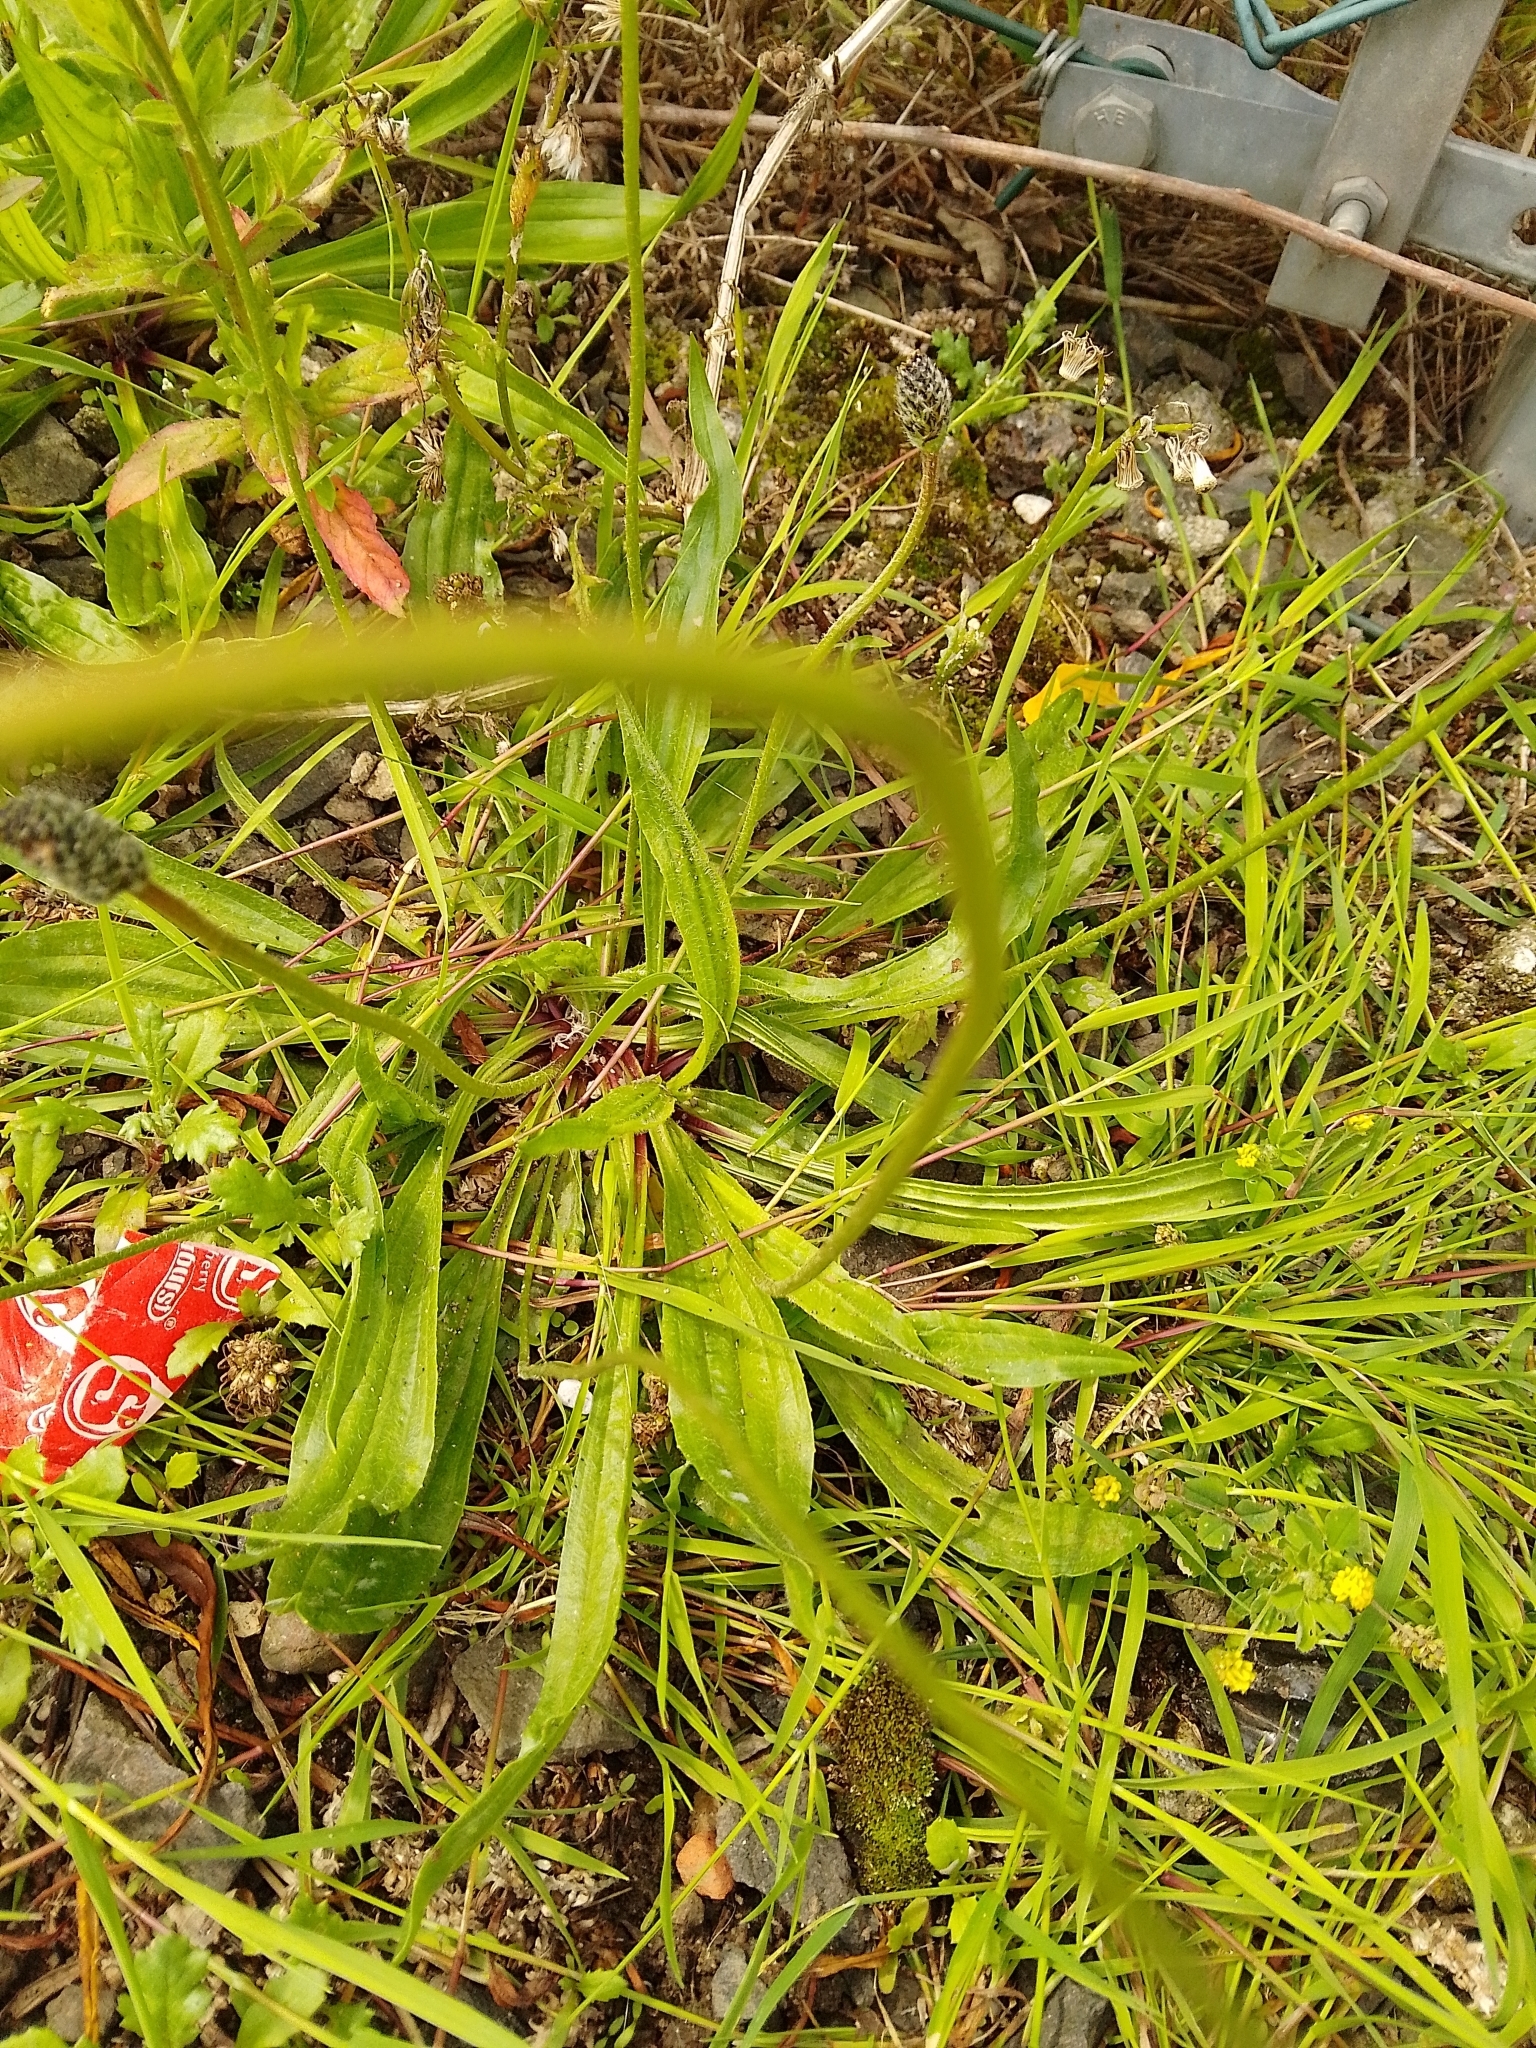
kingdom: Plantae
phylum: Tracheophyta
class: Magnoliopsida
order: Lamiales
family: Plantaginaceae
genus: Plantago
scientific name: Plantago lanceolata
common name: Ribwort plantain
